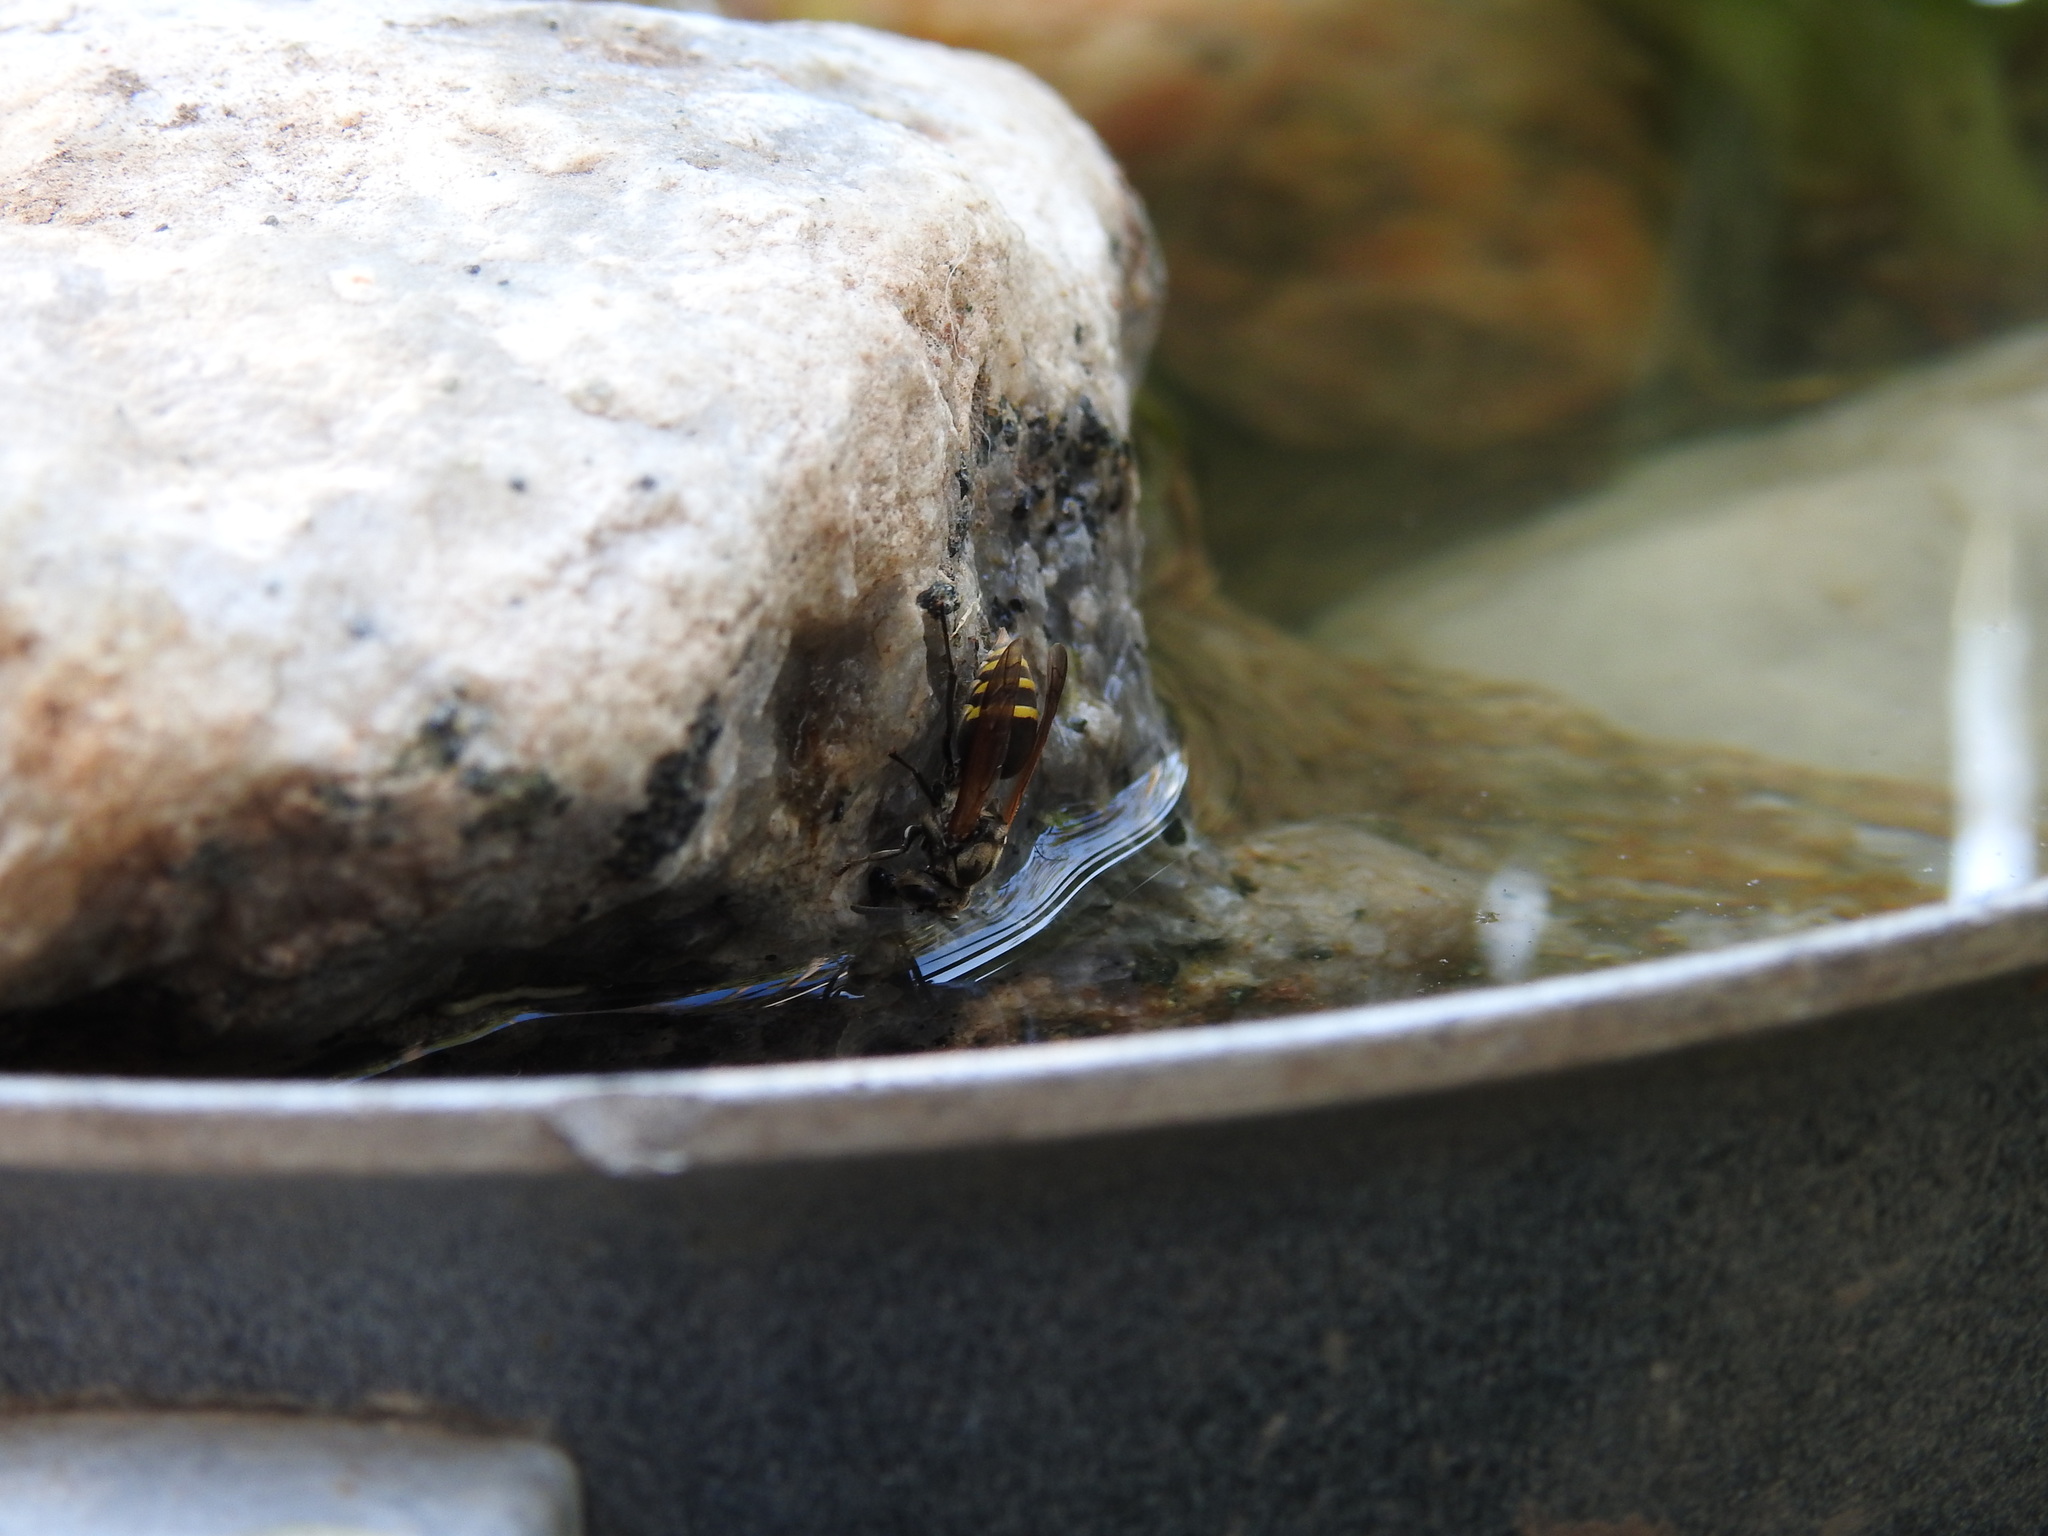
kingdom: Animalia
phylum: Arthropoda
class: Insecta
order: Hymenoptera
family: Vespidae
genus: Brachygastra
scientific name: Brachygastra lecheguana
